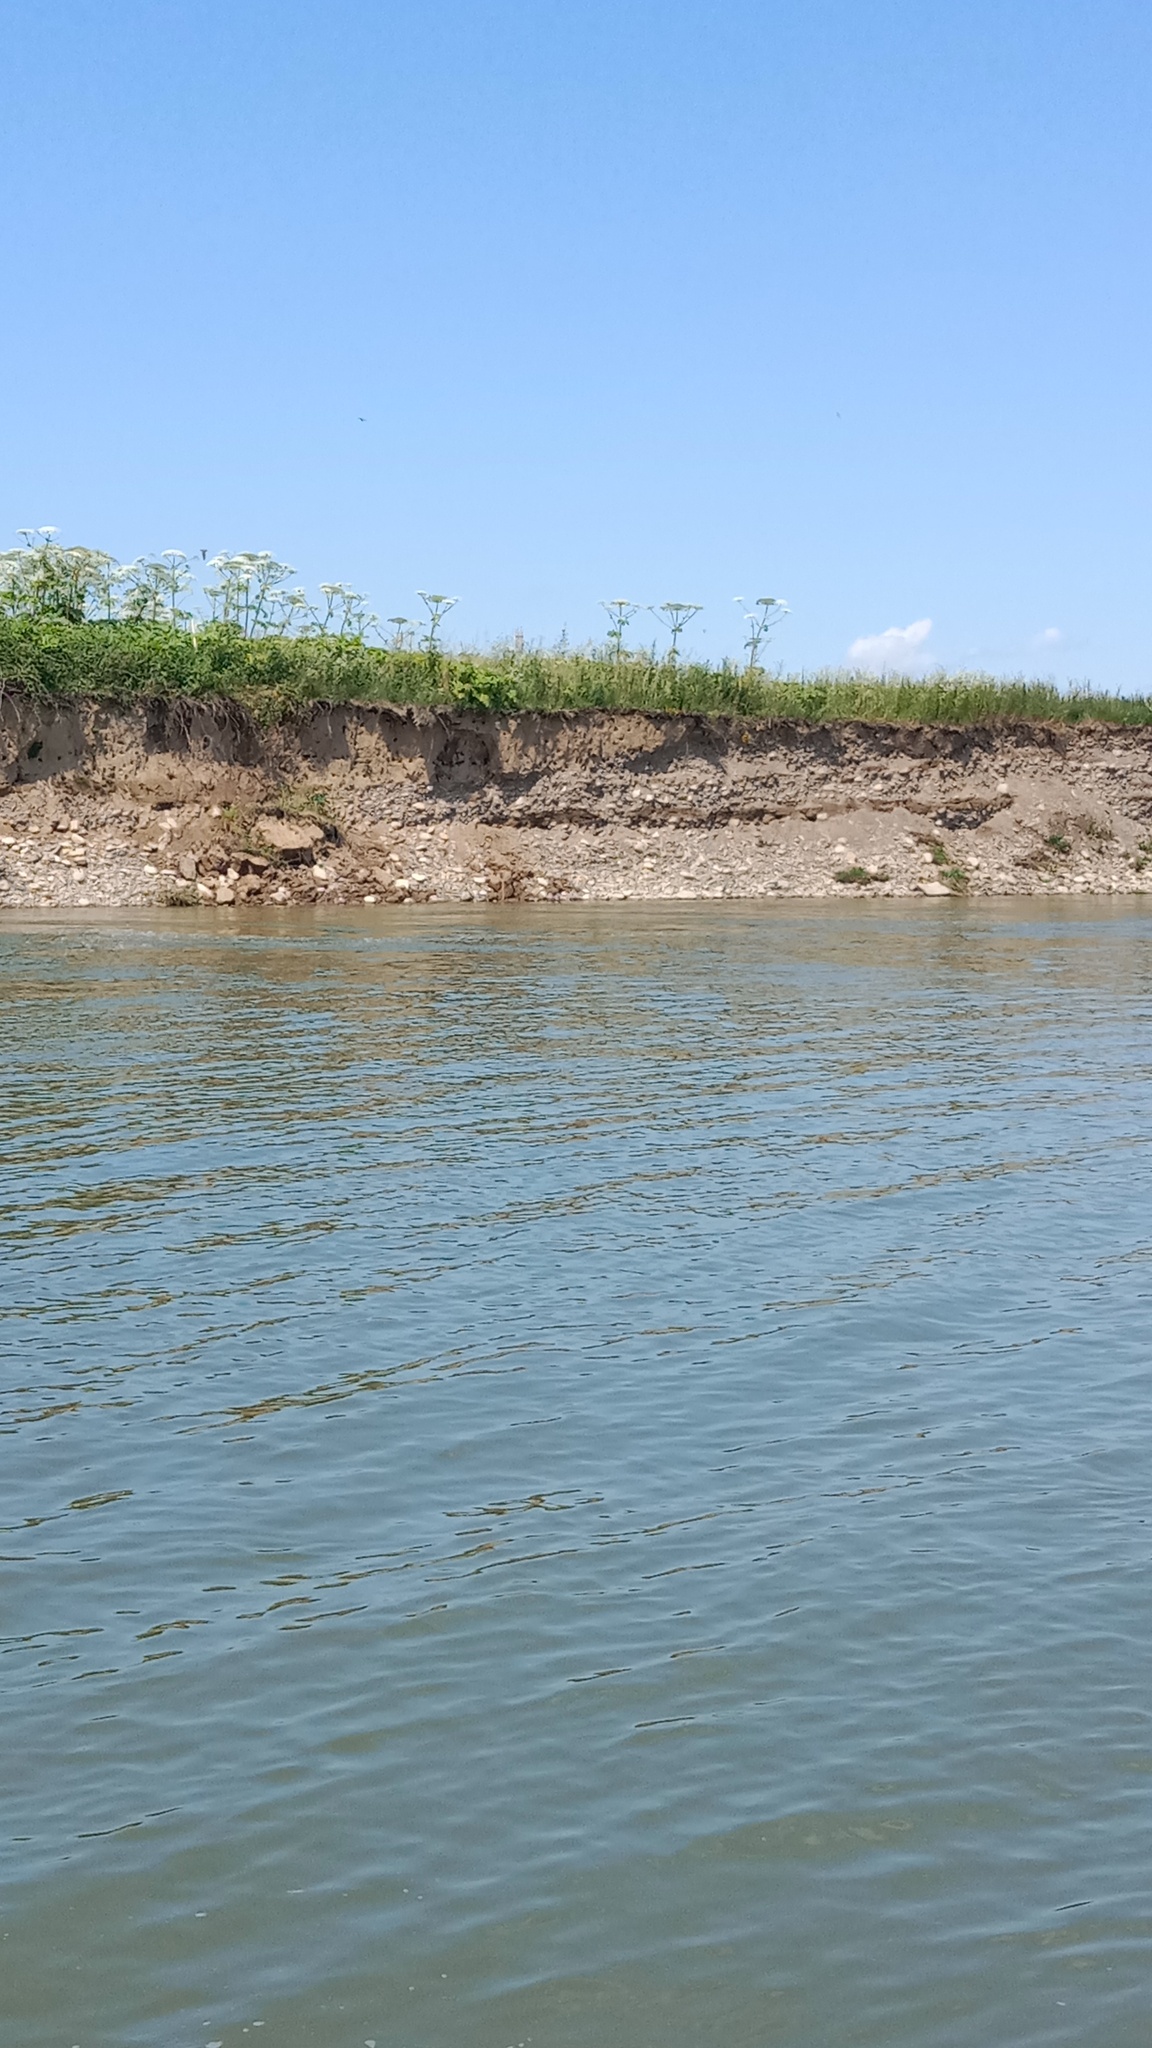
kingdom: Animalia
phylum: Chordata
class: Aves
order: Passeriformes
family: Hirundinidae
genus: Riparia
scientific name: Riparia riparia
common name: Sand martin
